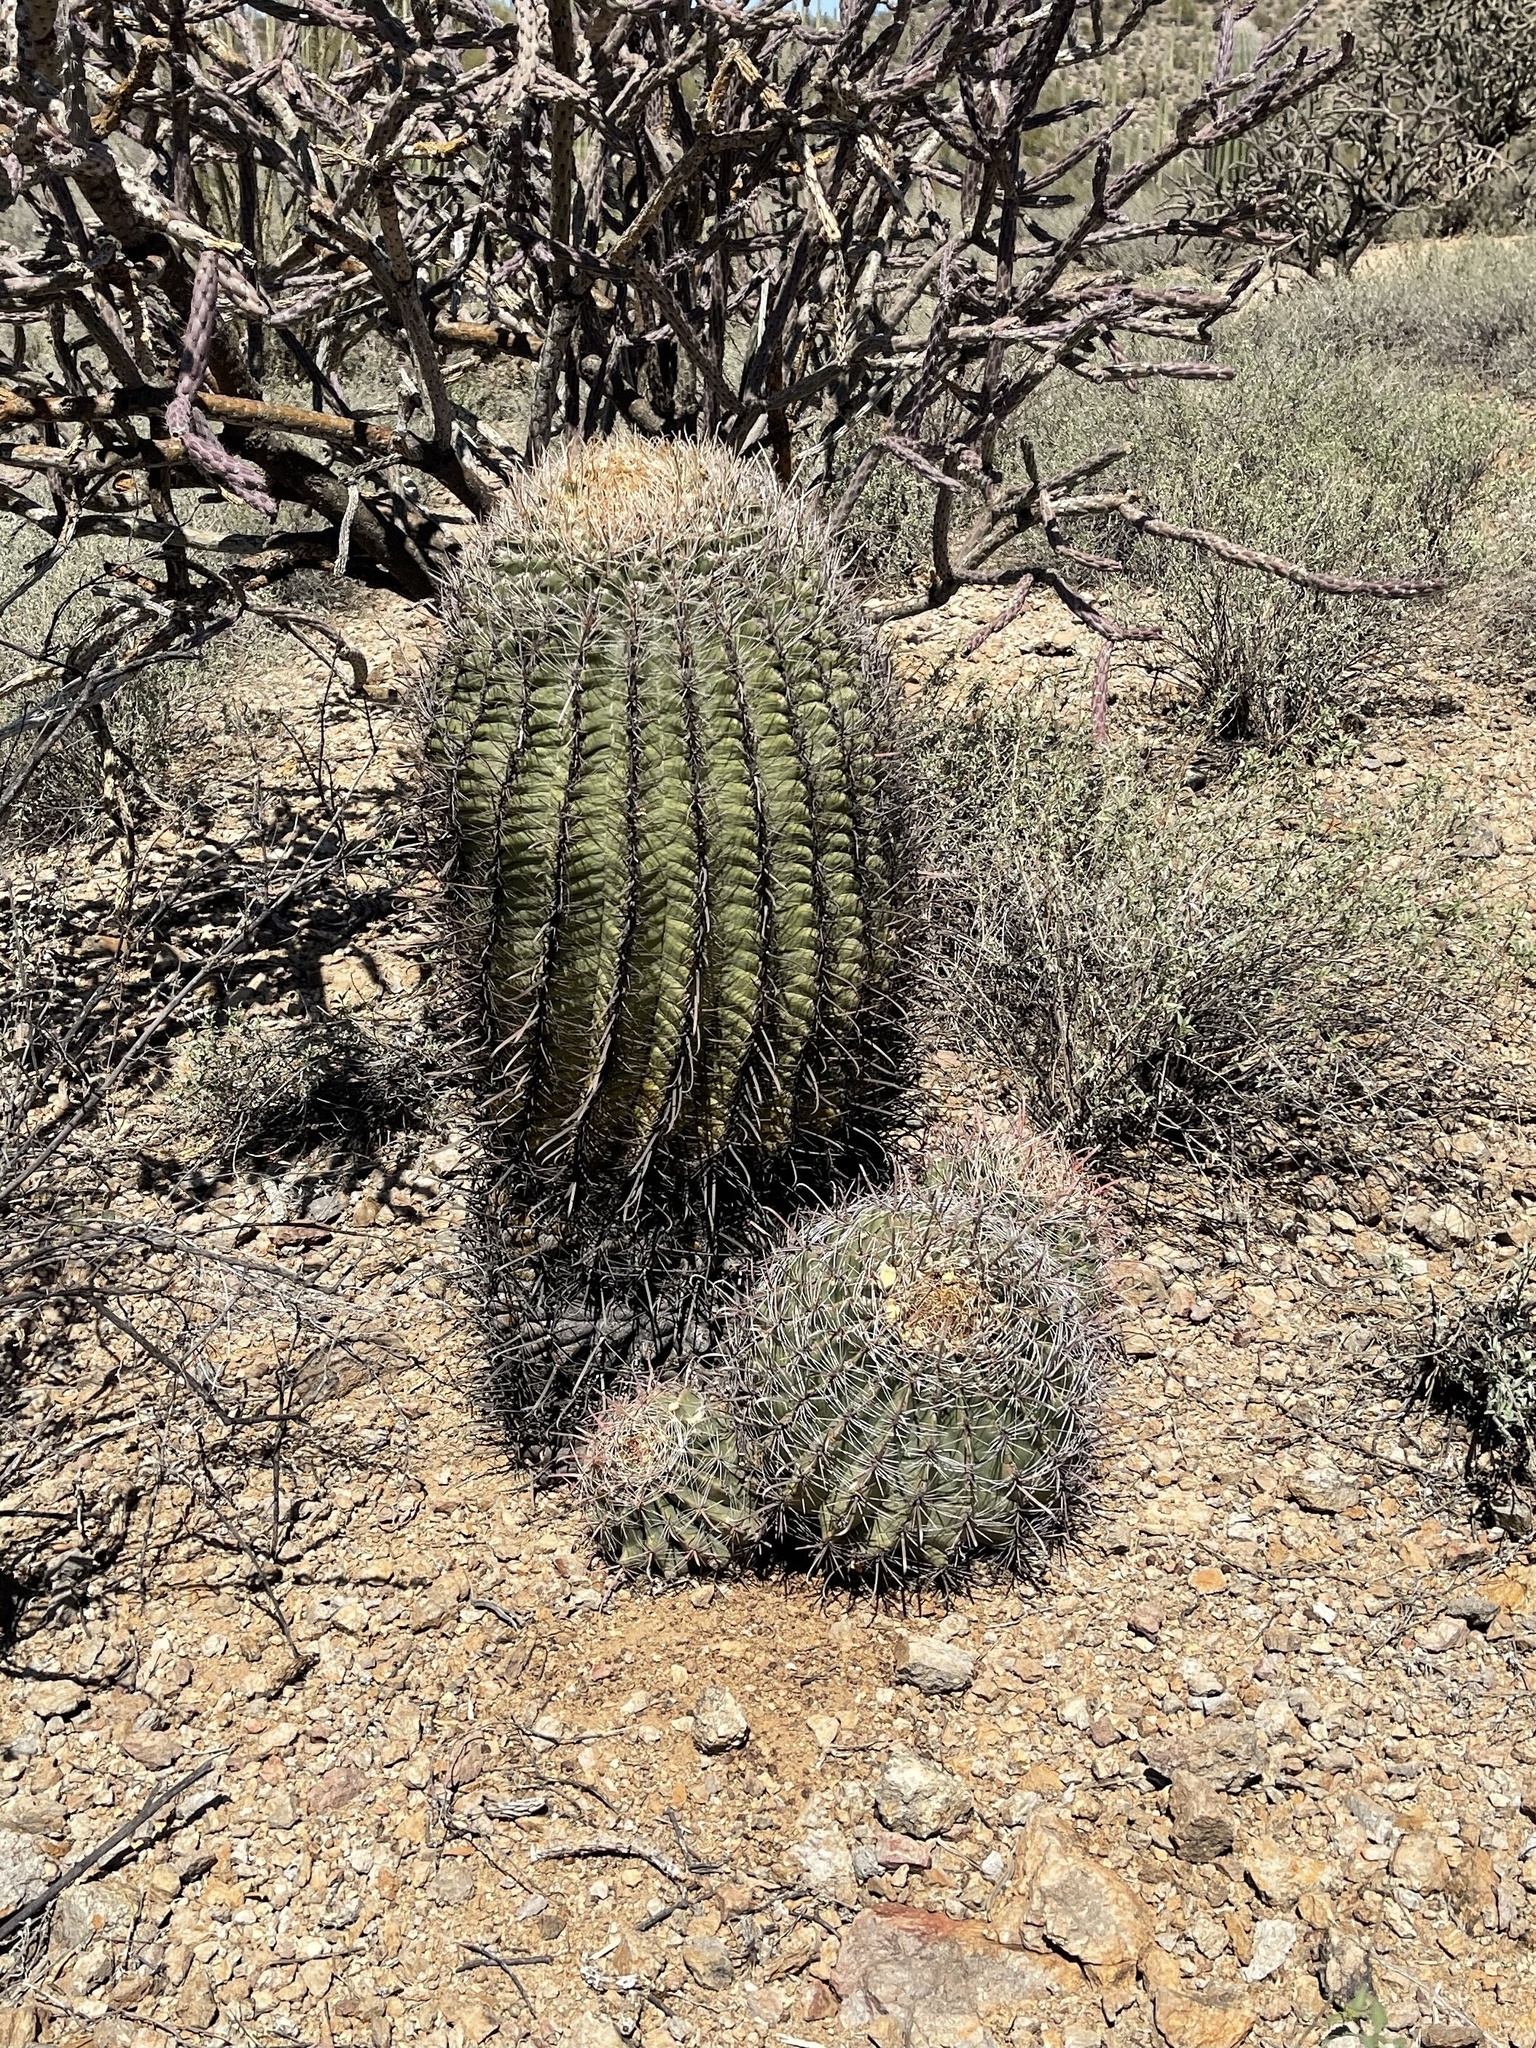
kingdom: Plantae
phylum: Tracheophyta
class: Magnoliopsida
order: Caryophyllales
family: Cactaceae
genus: Ferocactus
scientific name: Ferocactus wislizeni
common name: Candy barrel cactus
